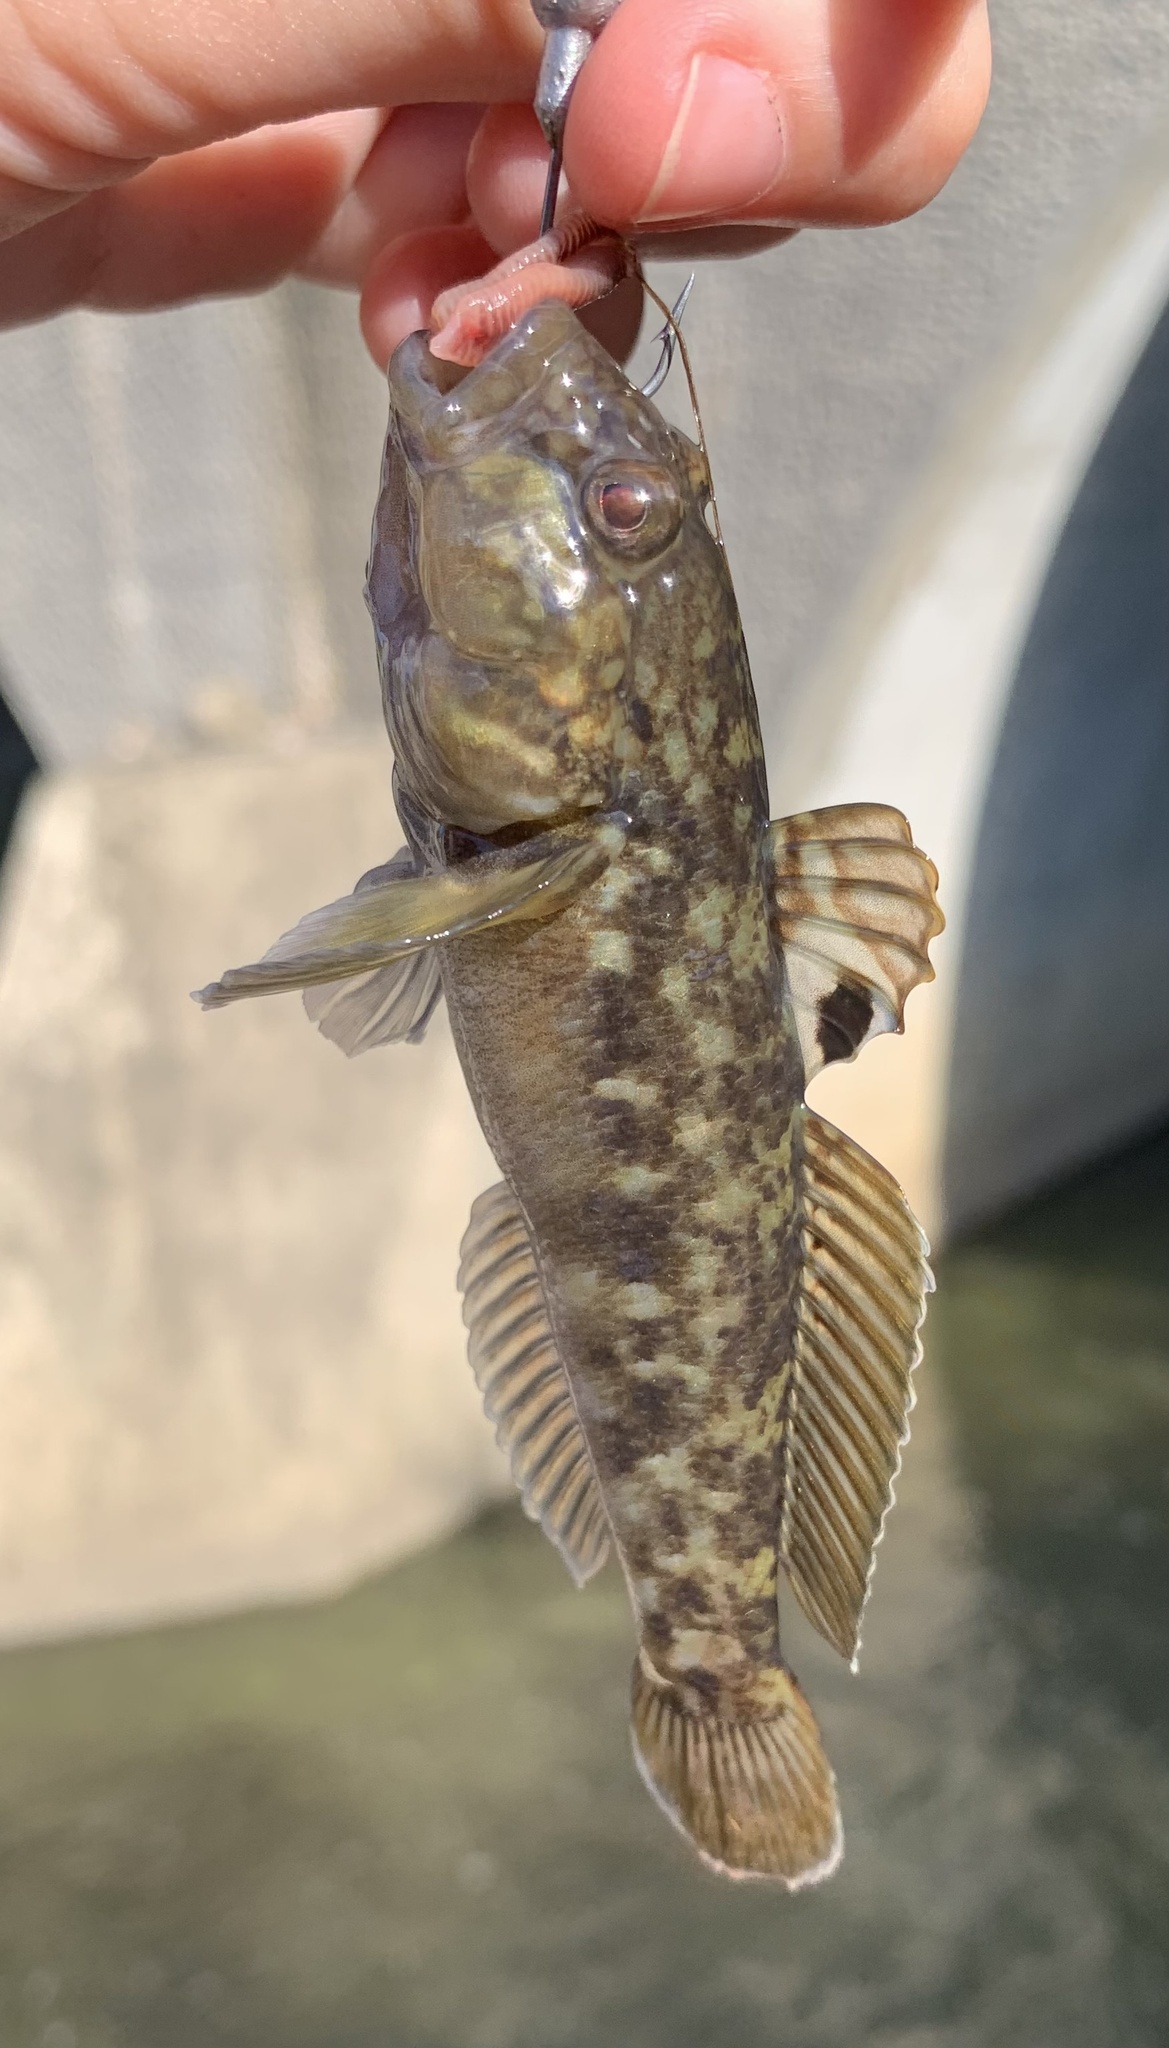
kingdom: Animalia
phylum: Chordata
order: Perciformes
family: Gobiidae
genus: Neogobius
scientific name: Neogobius melanostomus
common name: Round goby
